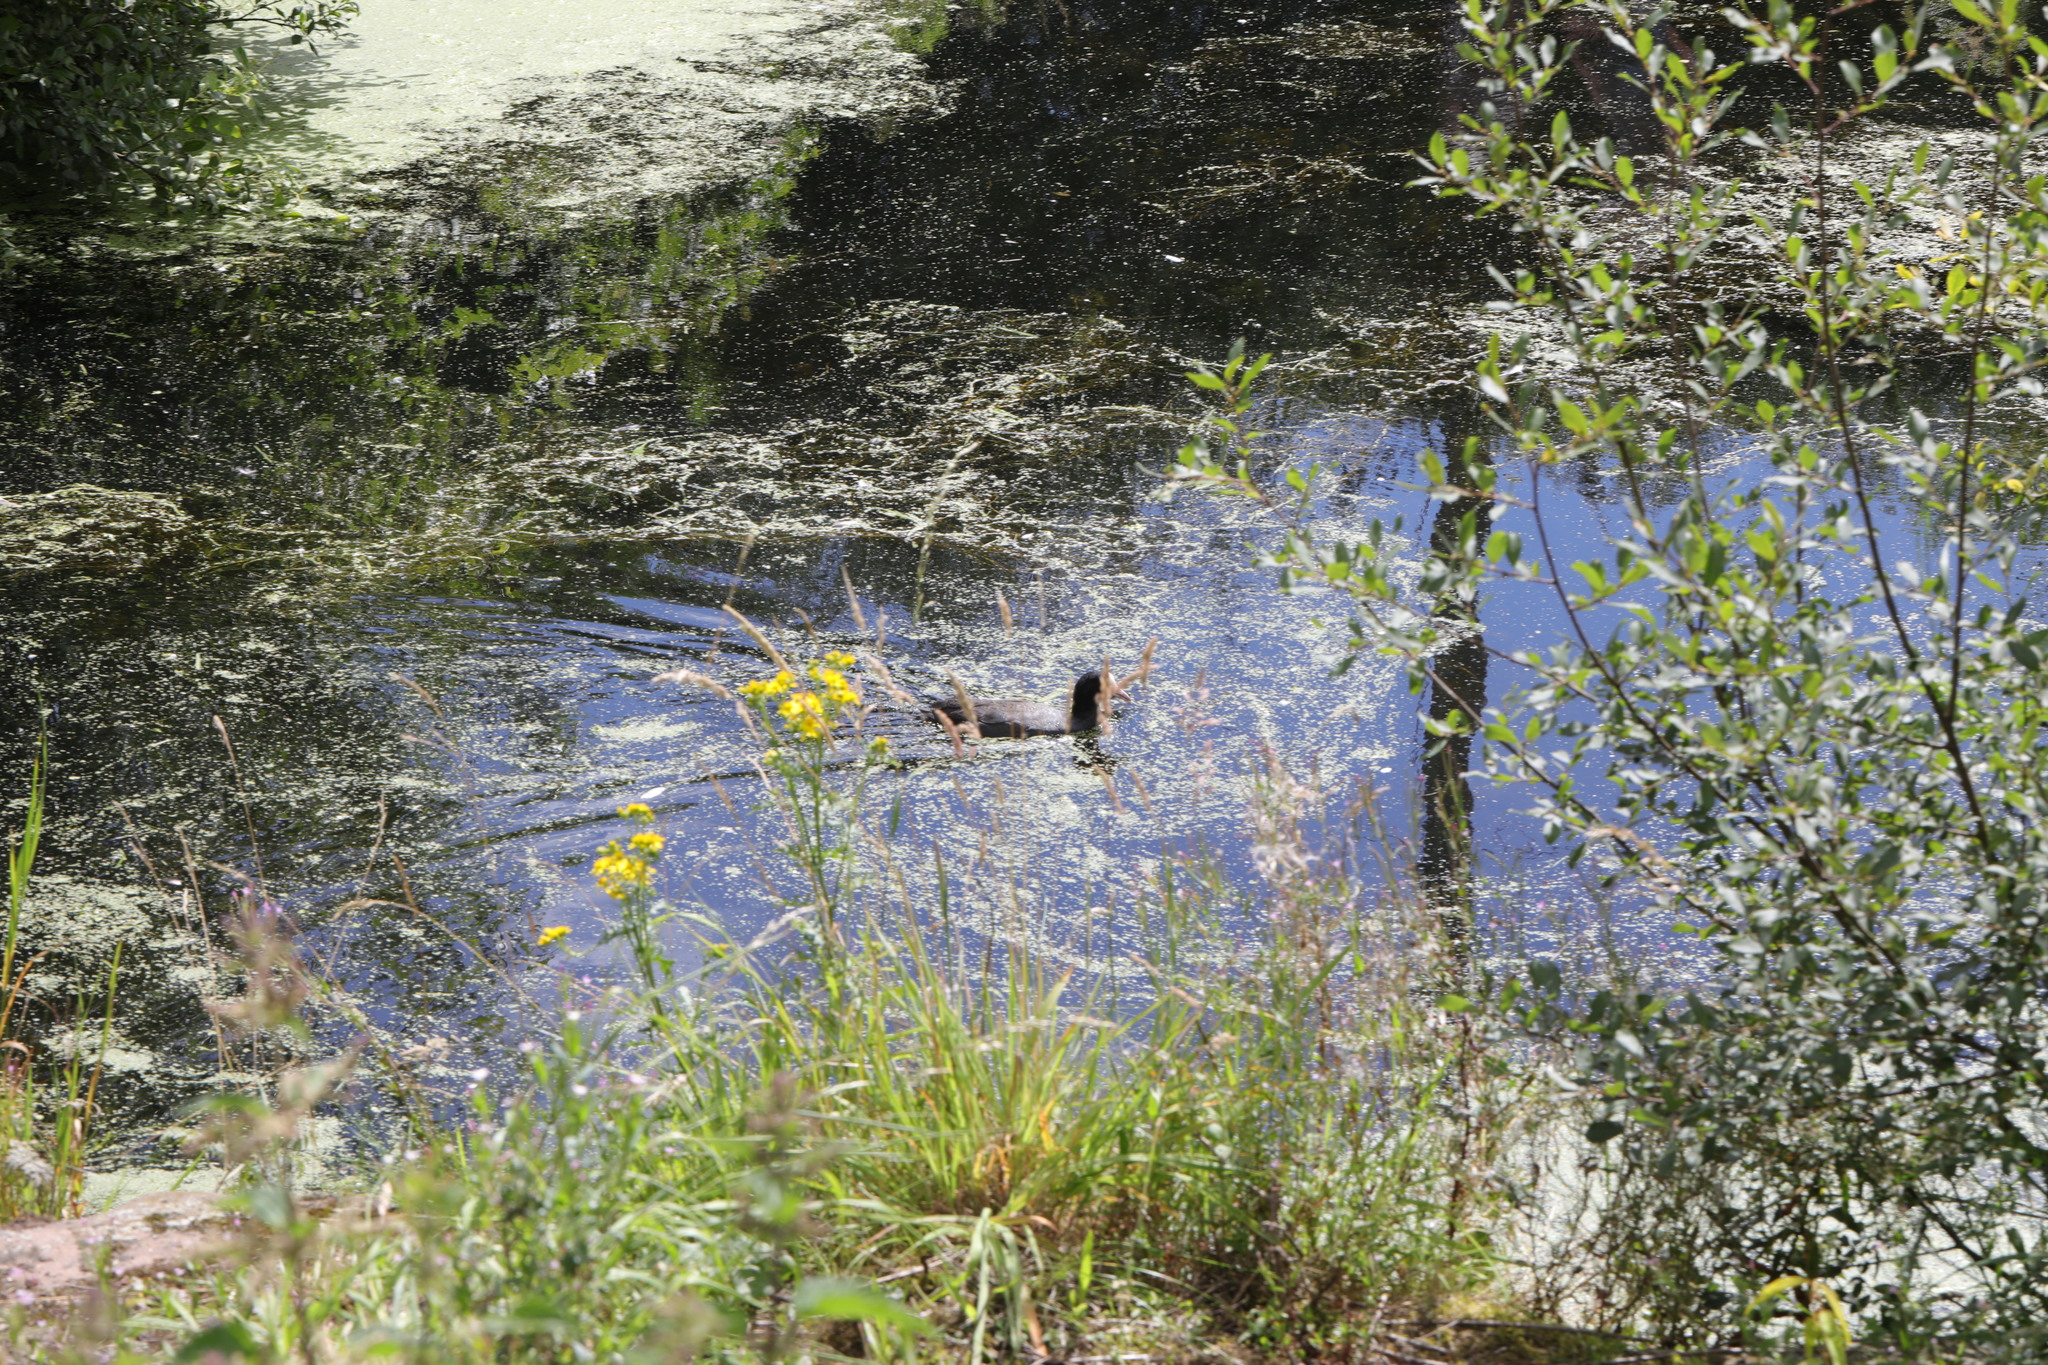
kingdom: Animalia
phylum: Chordata
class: Aves
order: Gruiformes
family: Rallidae
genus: Fulica
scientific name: Fulica atra
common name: Eurasian coot
